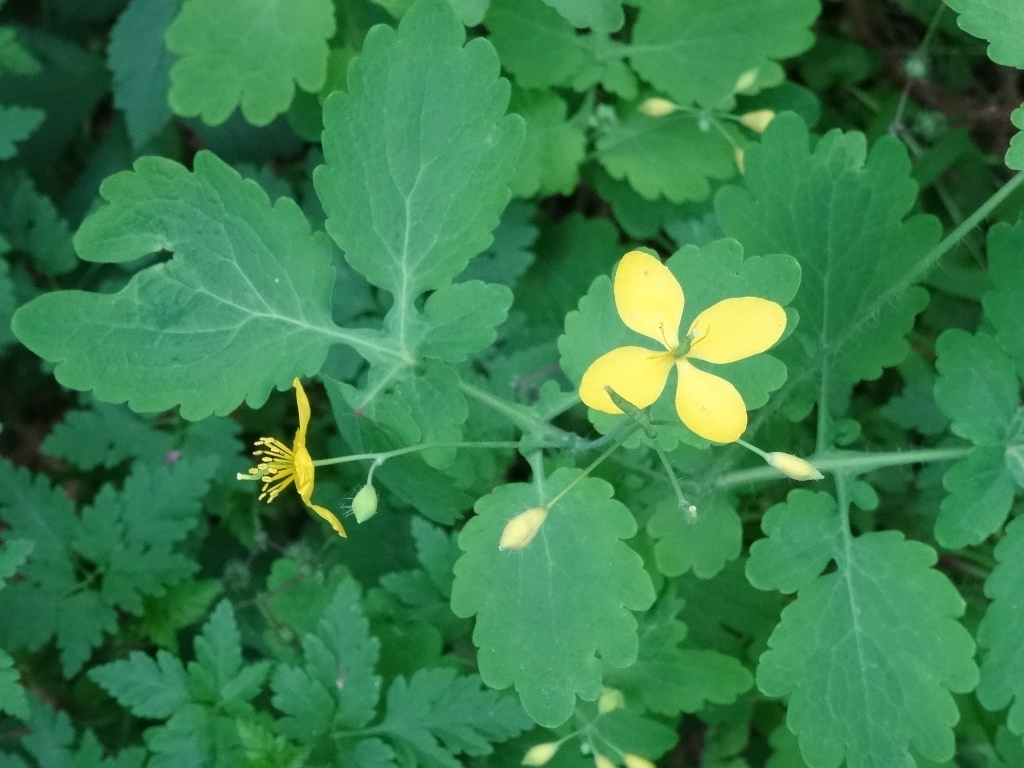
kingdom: Plantae
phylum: Tracheophyta
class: Magnoliopsida
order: Ranunculales
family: Papaveraceae
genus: Chelidonium
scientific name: Chelidonium majus
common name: Greater celandine
